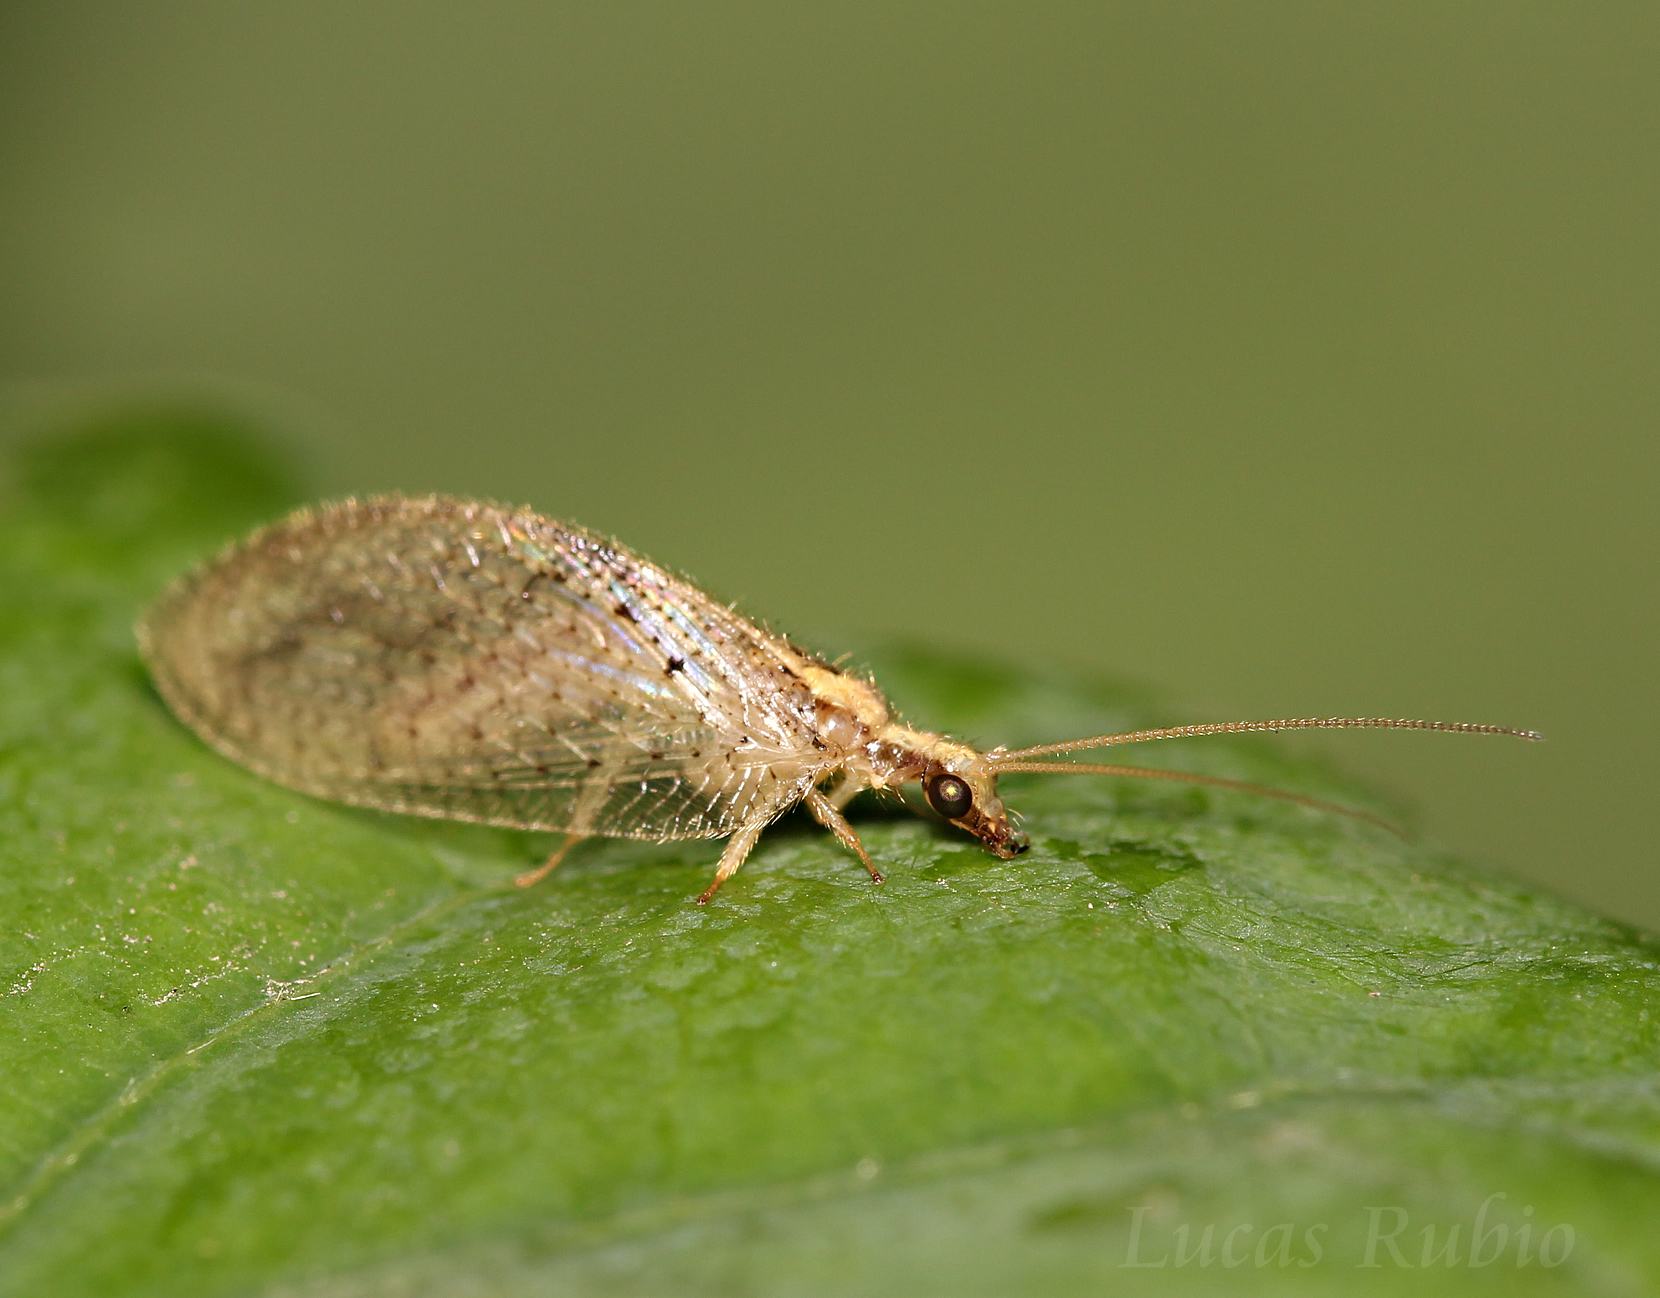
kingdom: Animalia
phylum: Arthropoda
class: Insecta
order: Neuroptera
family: Hemerobiidae
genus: Hemerobius
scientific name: Hemerobius bolivari
